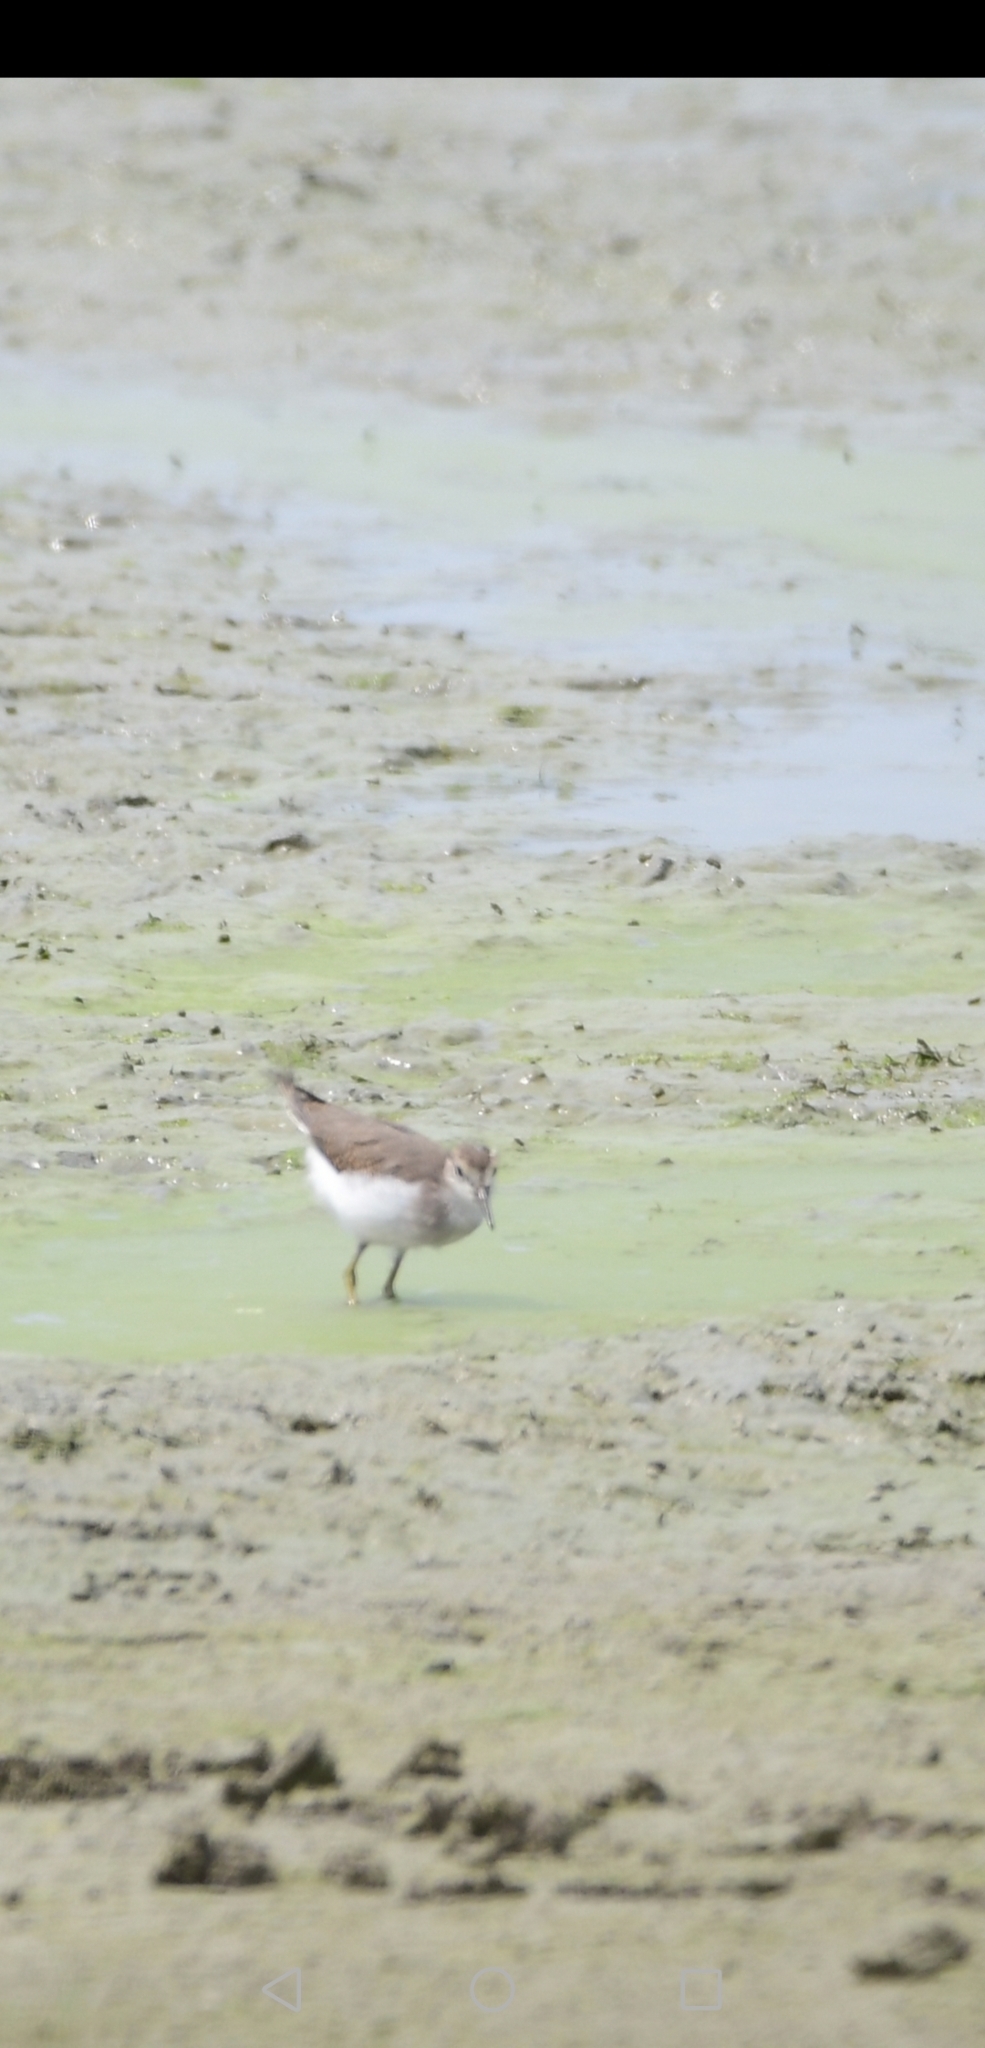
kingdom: Animalia
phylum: Chordata
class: Aves
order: Charadriiformes
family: Scolopacidae
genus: Actitis
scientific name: Actitis macularius
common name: Spotted sandpiper
